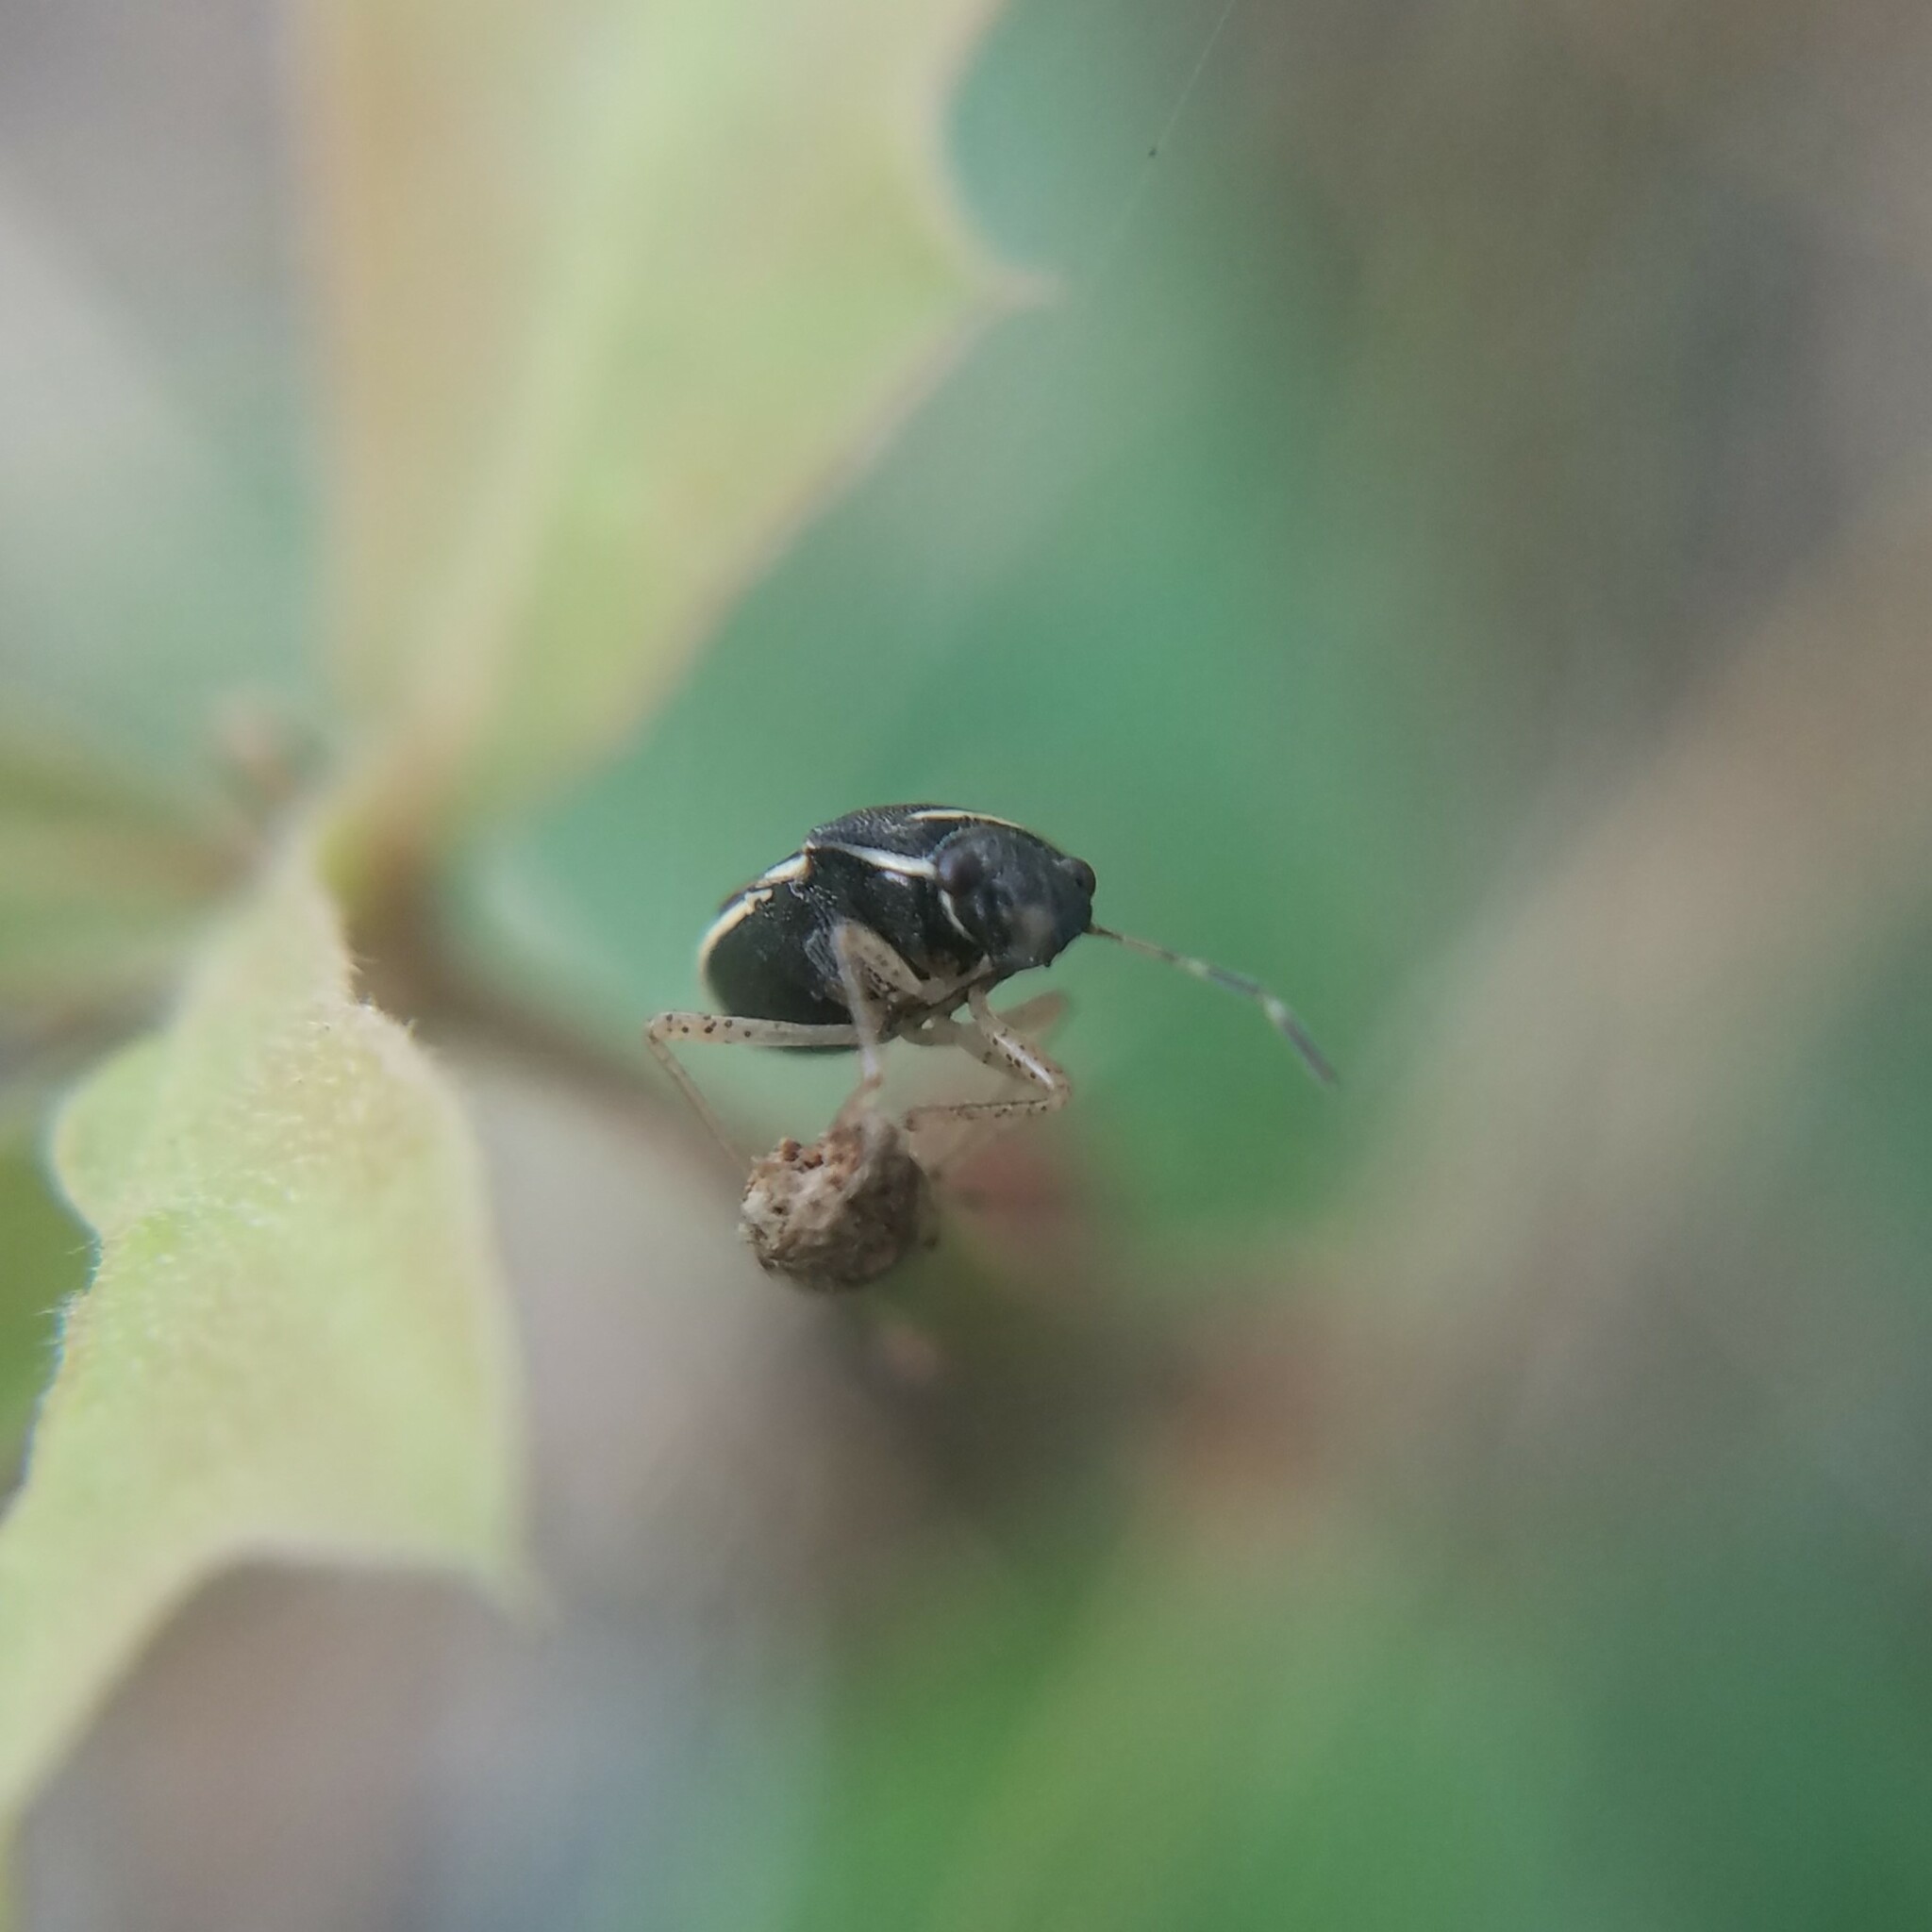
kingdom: Animalia
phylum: Arthropoda
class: Insecta
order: Hemiptera
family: Pentatomidae
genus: Mormidea
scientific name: Mormidea lugens
